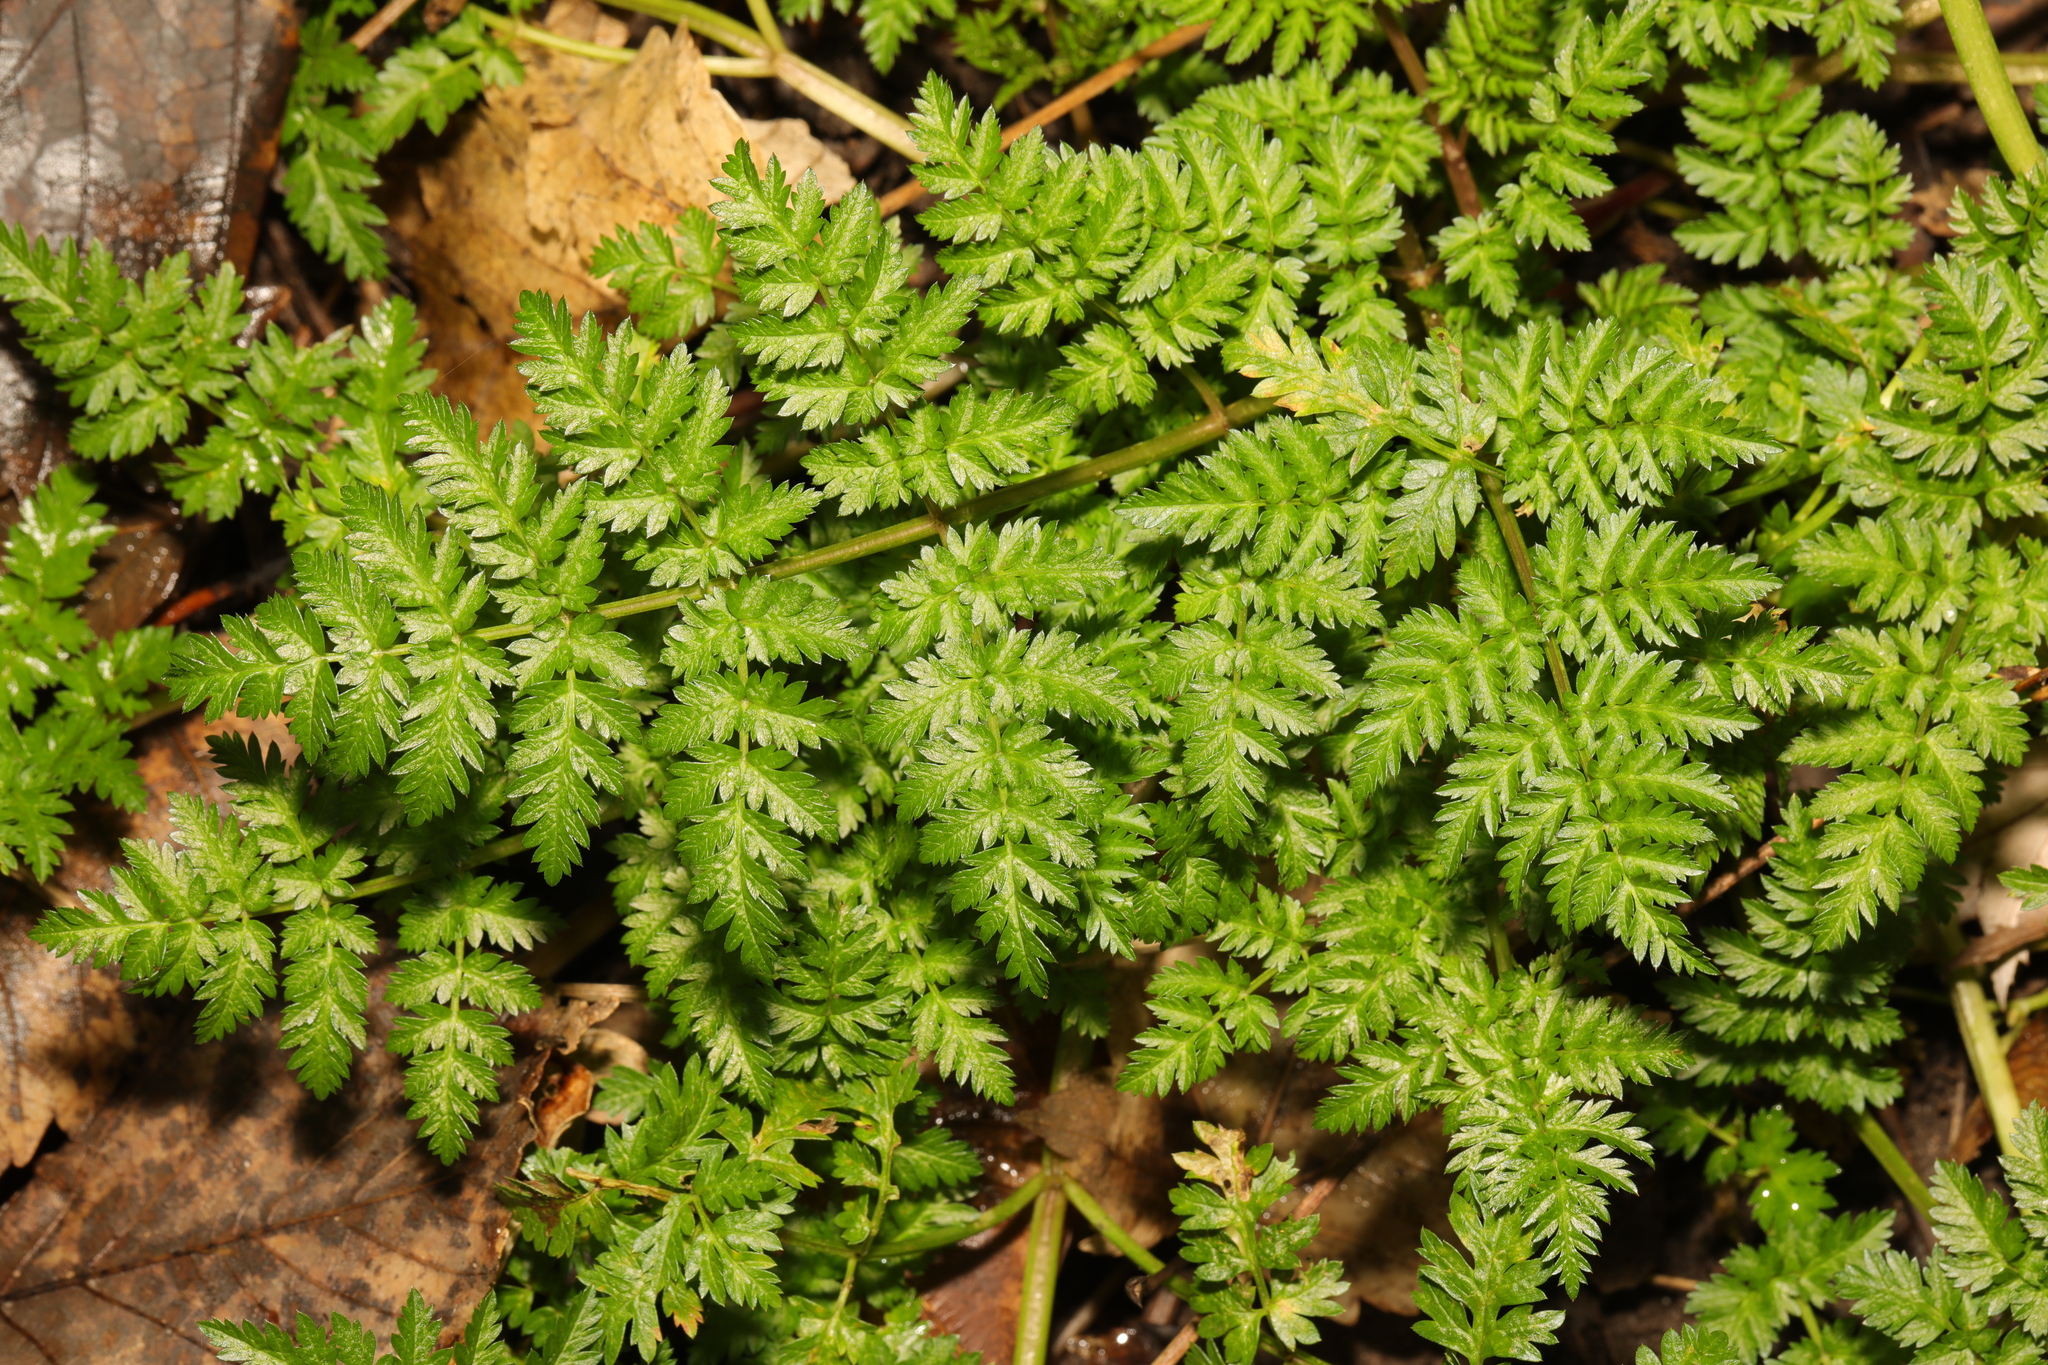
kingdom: Plantae
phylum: Tracheophyta
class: Magnoliopsida
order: Apiales
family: Apiaceae
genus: Anthriscus
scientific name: Anthriscus sylvestris
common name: Cow parsley
